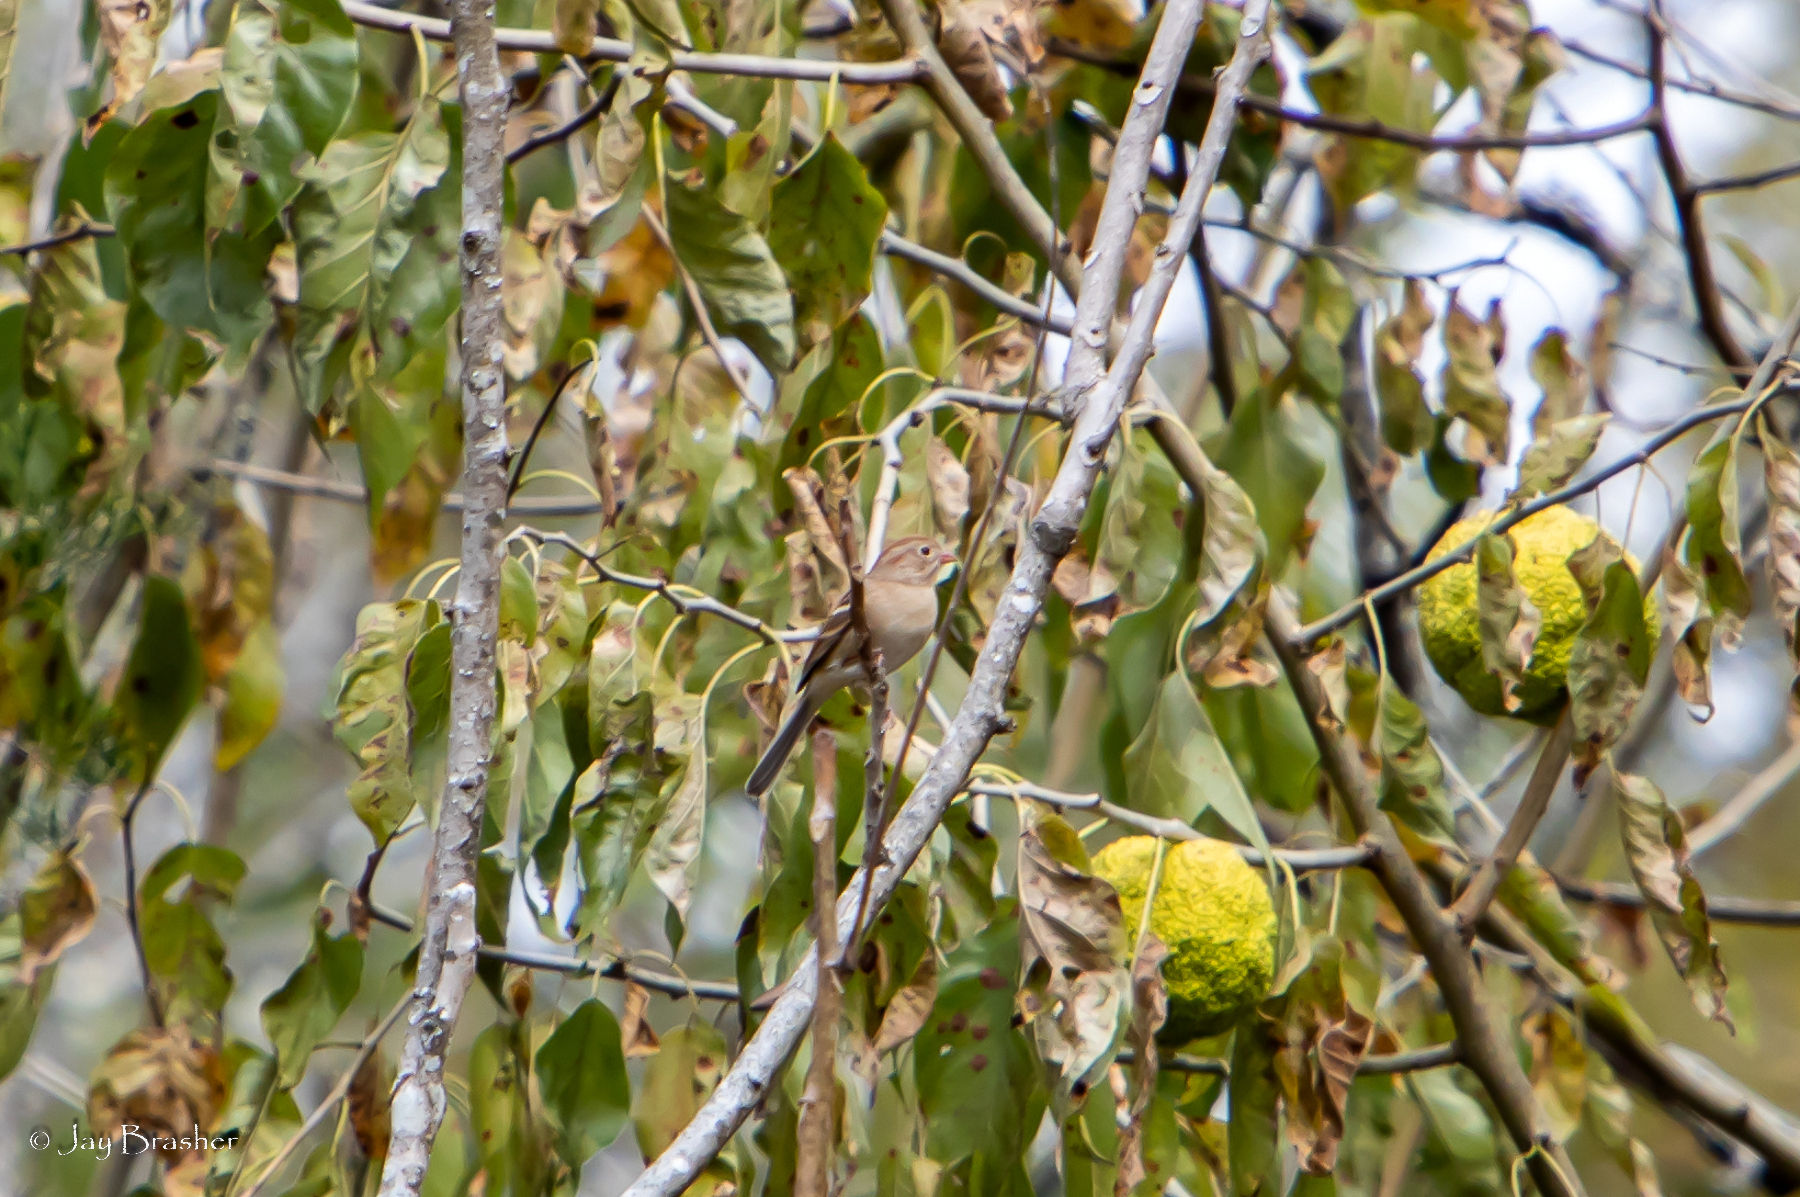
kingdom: Animalia
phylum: Chordata
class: Aves
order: Passeriformes
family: Passerellidae
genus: Spizella
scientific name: Spizella pusilla
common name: Field sparrow
